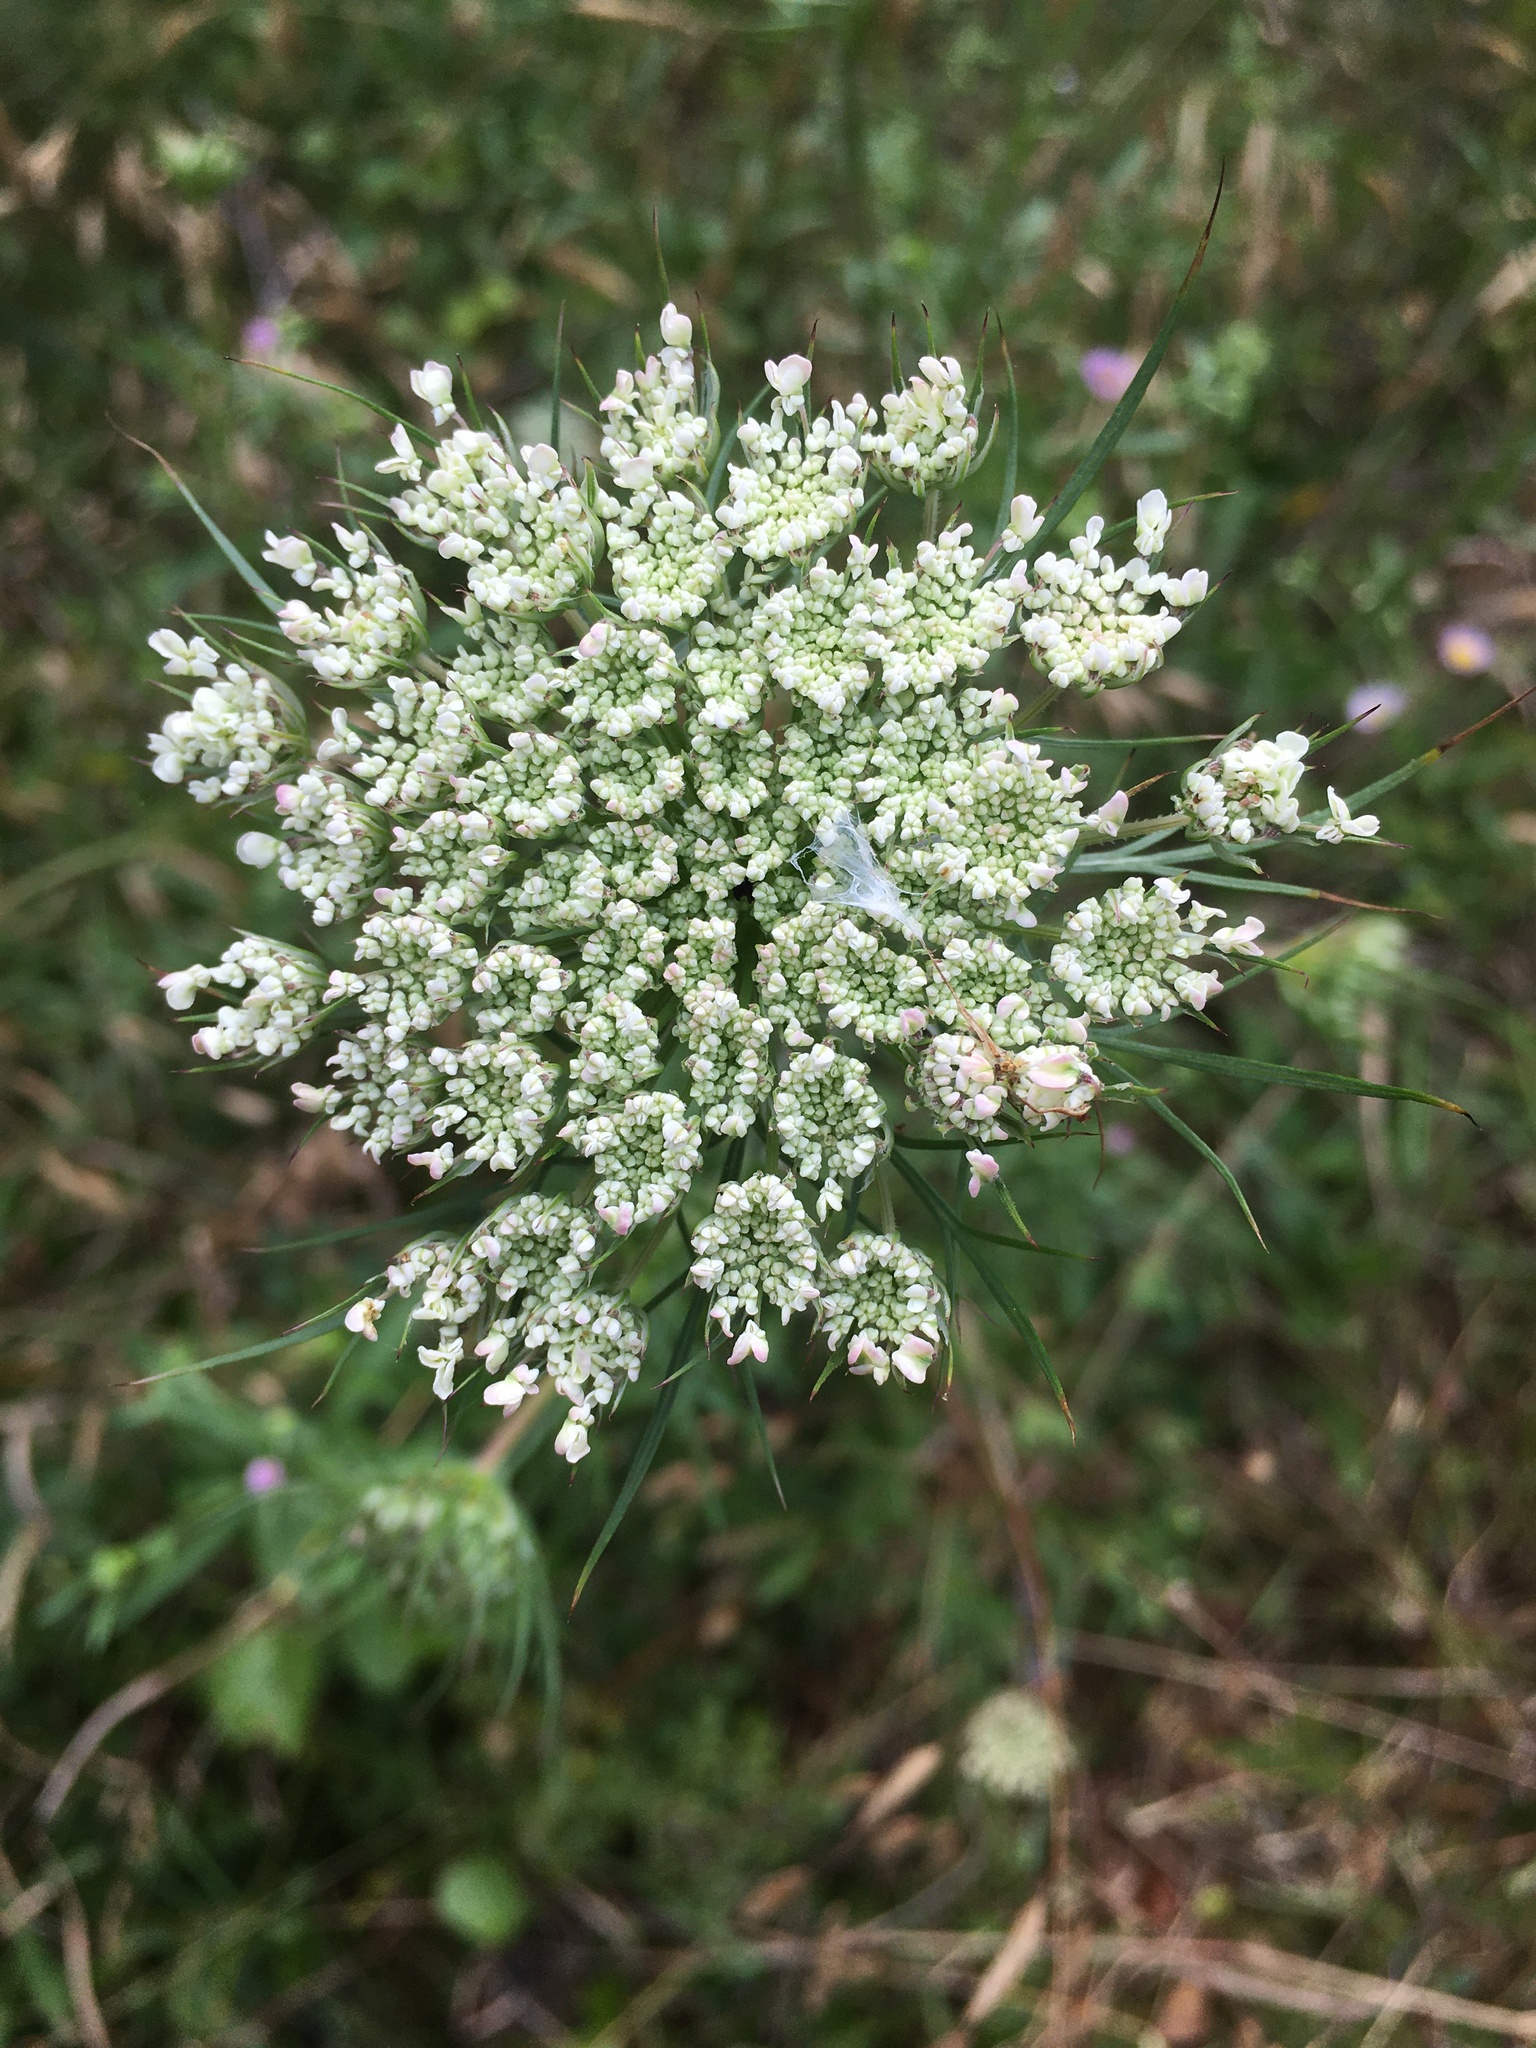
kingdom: Plantae
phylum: Tracheophyta
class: Magnoliopsida
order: Apiales
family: Apiaceae
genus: Daucus
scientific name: Daucus carota
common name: Wild carrot
